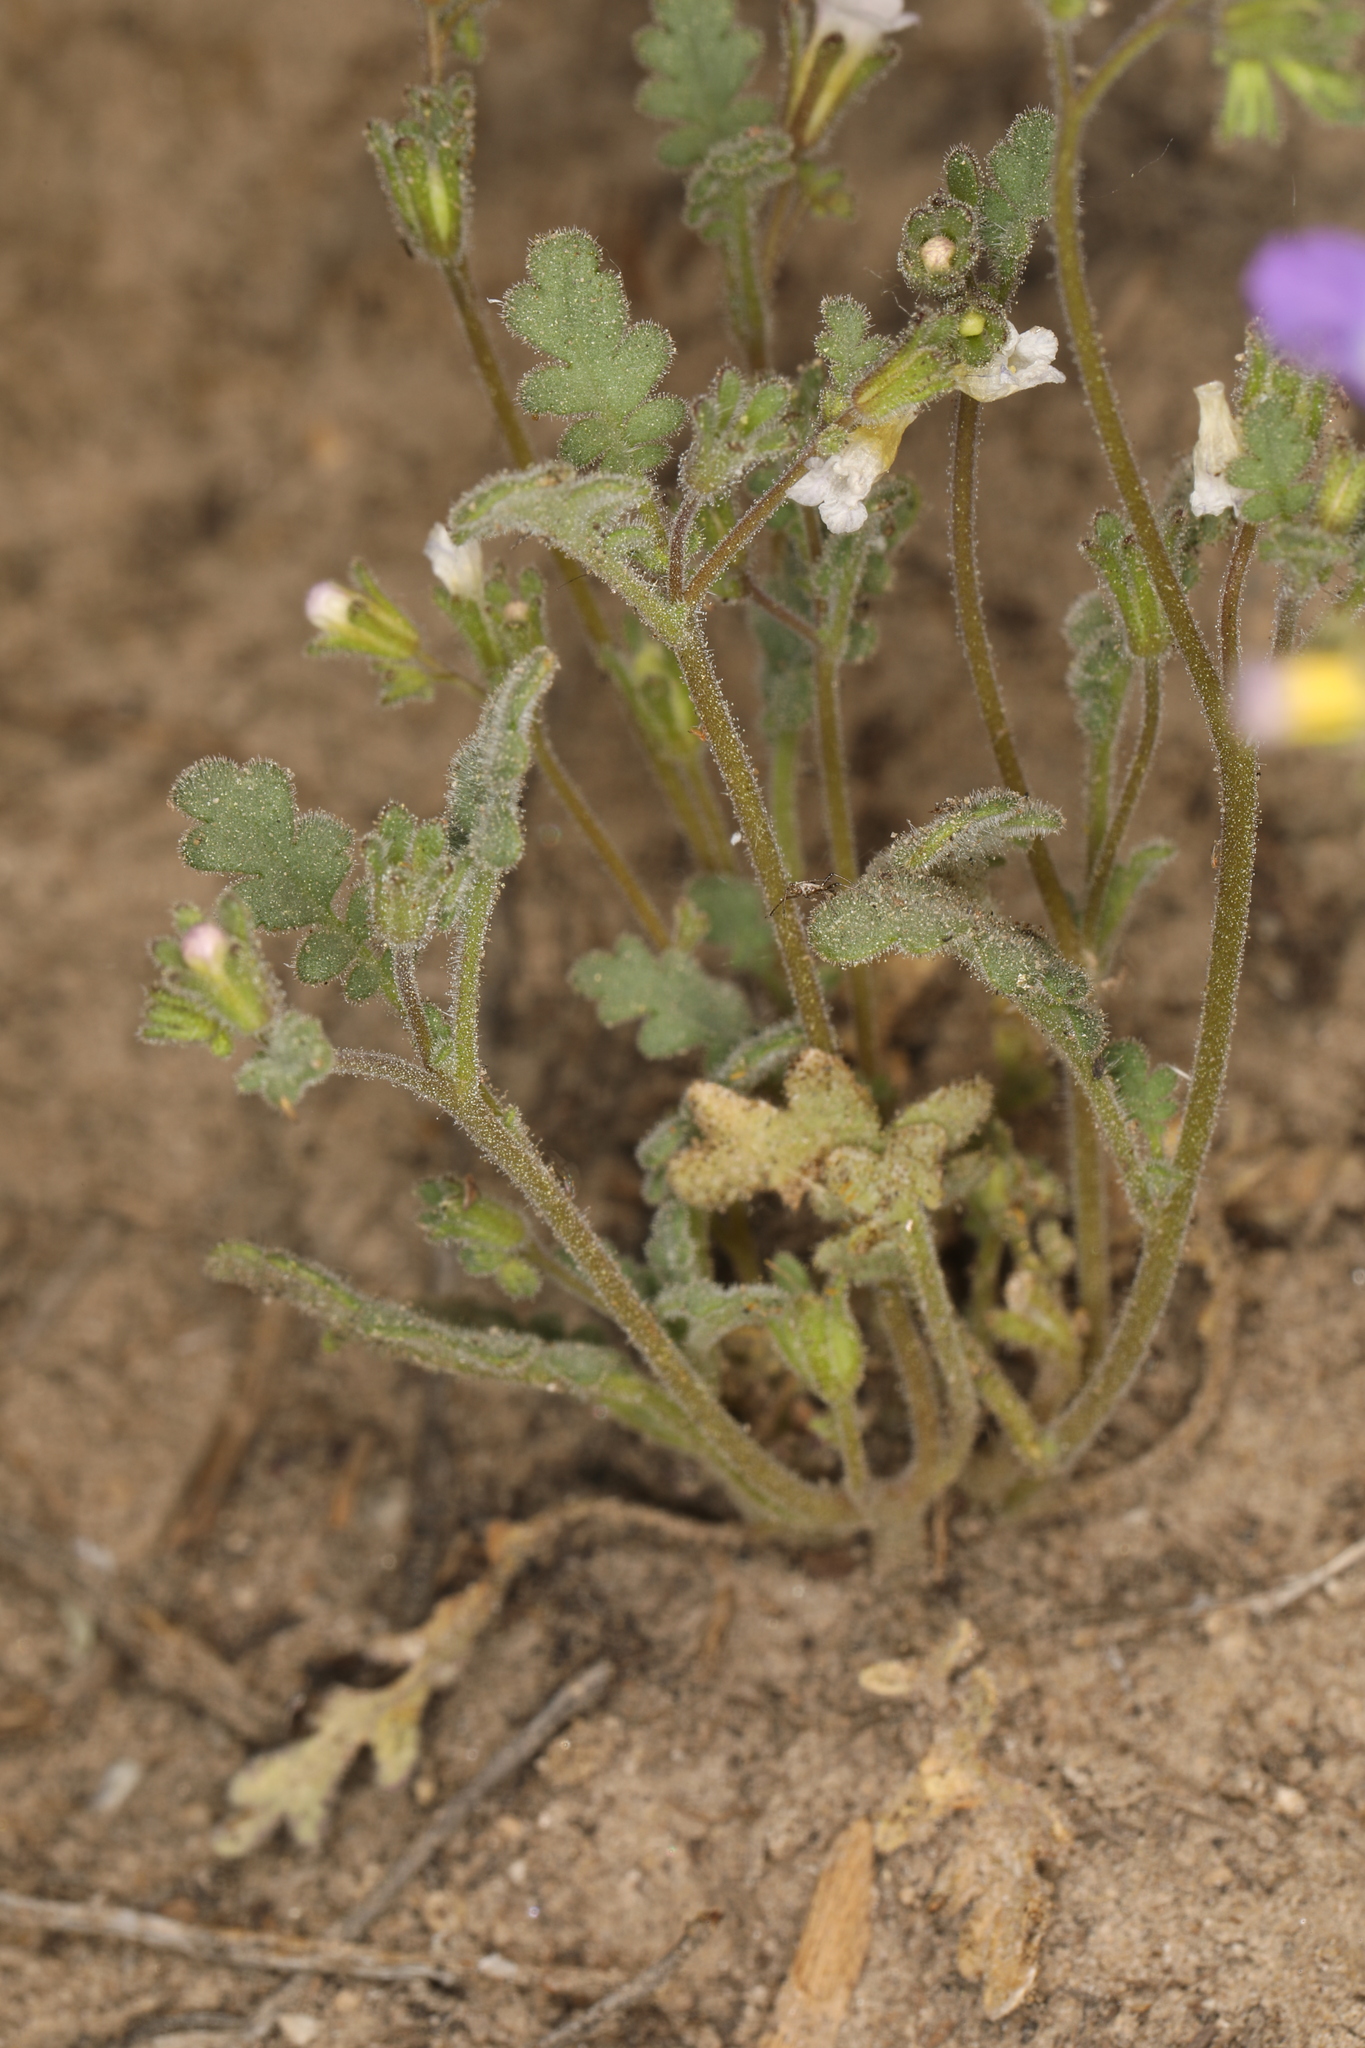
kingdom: Plantae
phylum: Tracheophyta
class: Magnoliopsida
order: Boraginales
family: Hydrophyllaceae
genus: Phacelia
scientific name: Phacelia affinis
